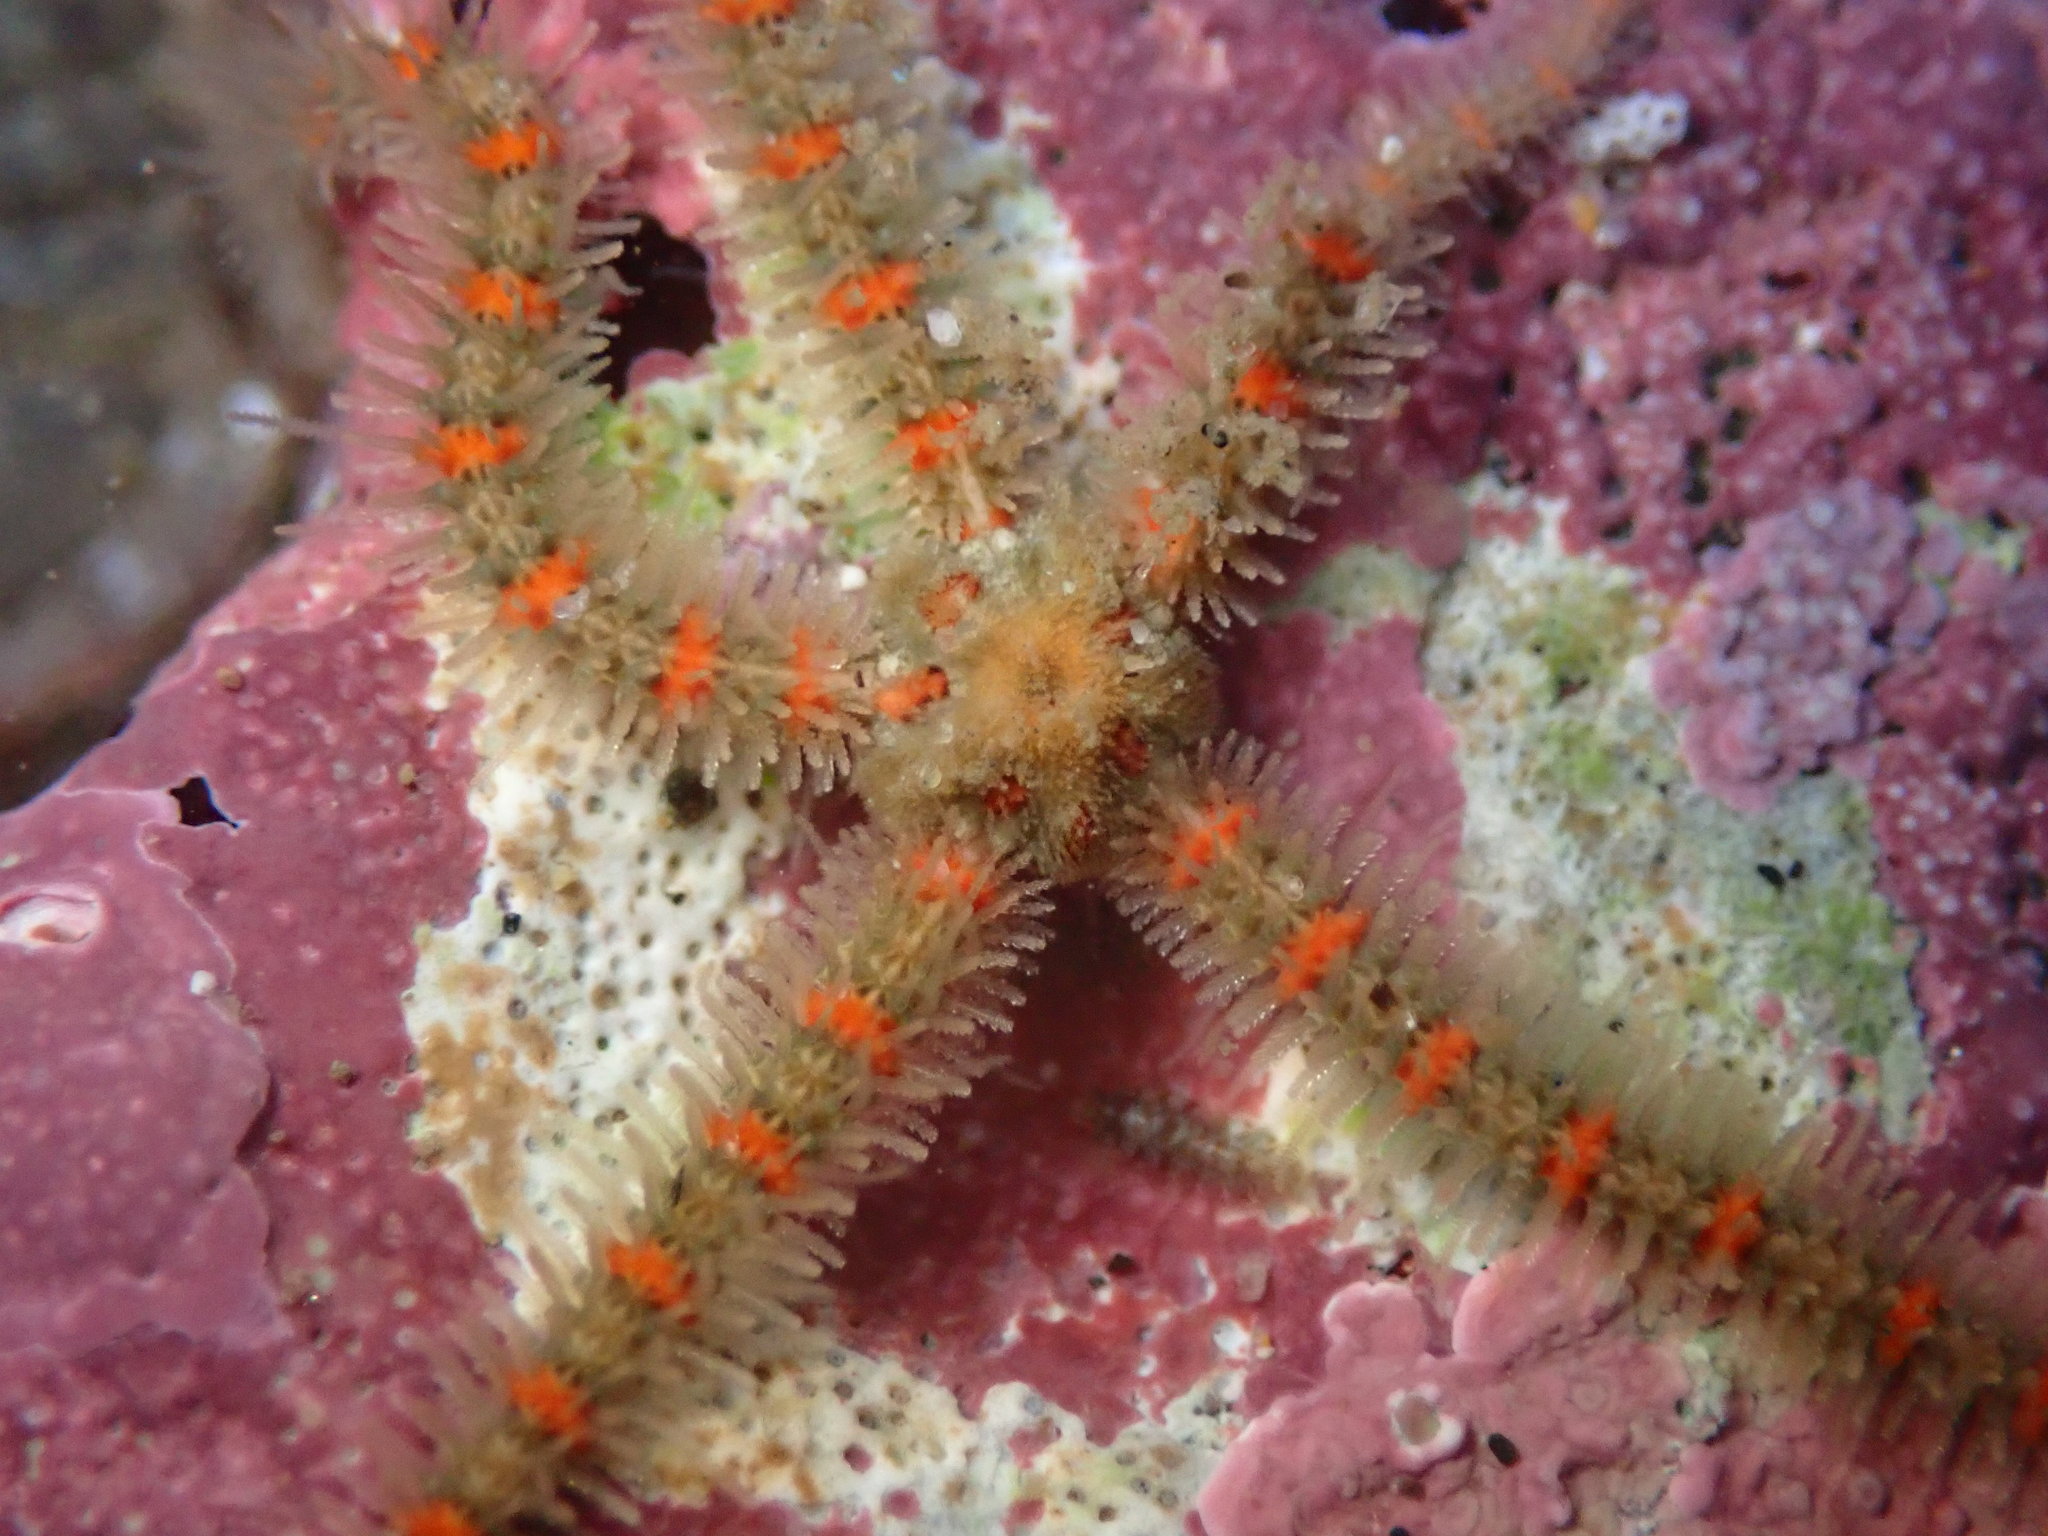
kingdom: Animalia
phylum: Echinodermata
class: Ophiuroidea
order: Amphilepidida
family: Ophiotrichidae
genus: Ophiothrix
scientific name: Ophiothrix spiculata
